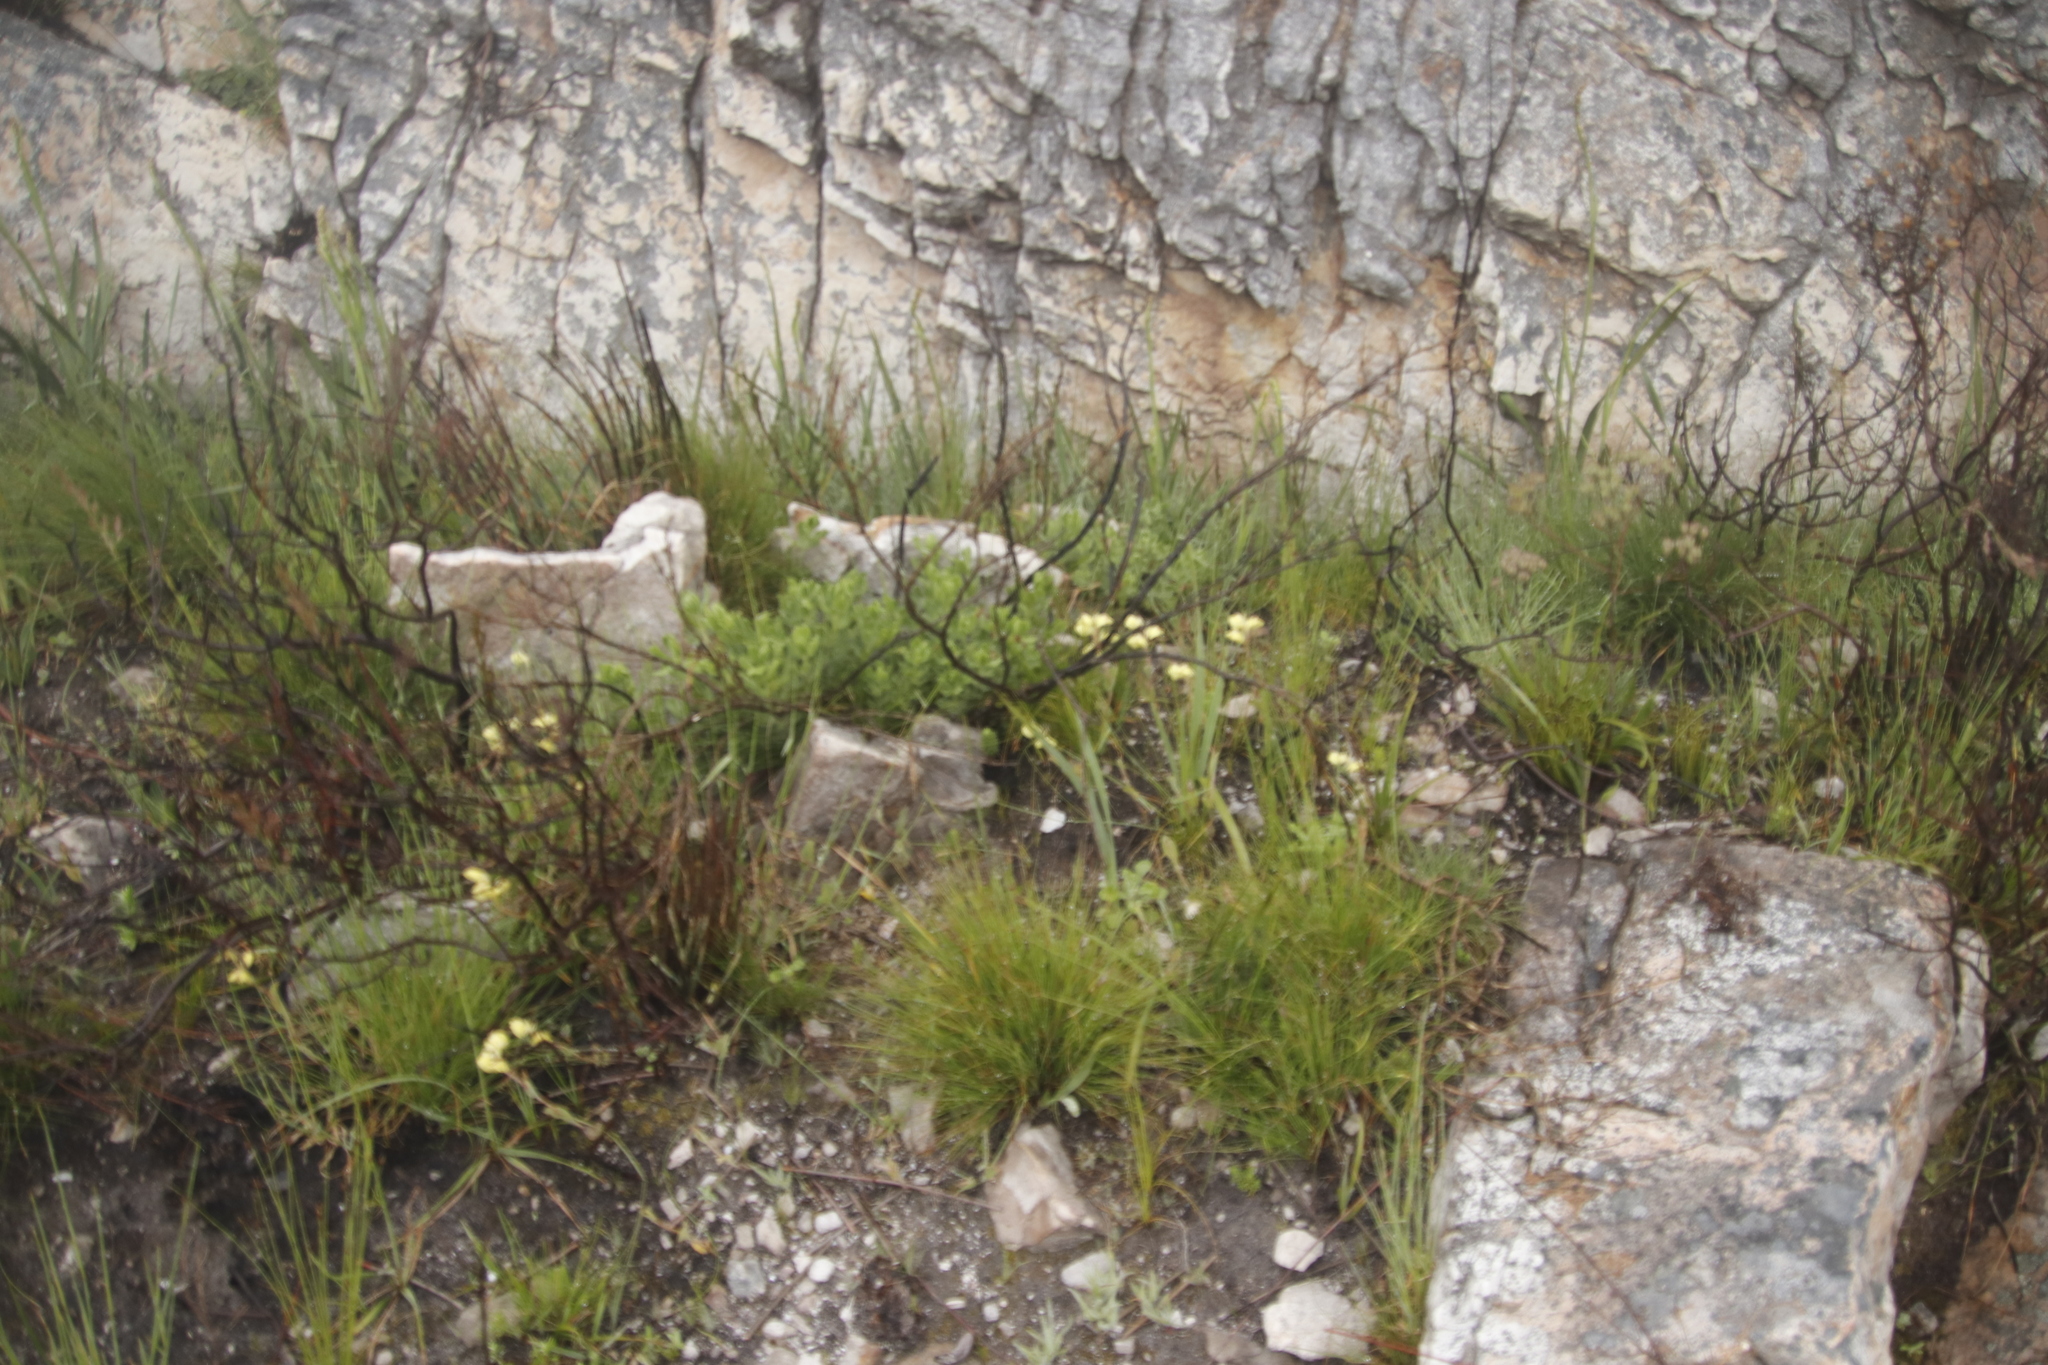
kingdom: Plantae
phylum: Tracheophyta
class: Liliopsida
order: Asparagales
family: Orchidaceae
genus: Pterygodium
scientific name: Pterygodium catholicum
